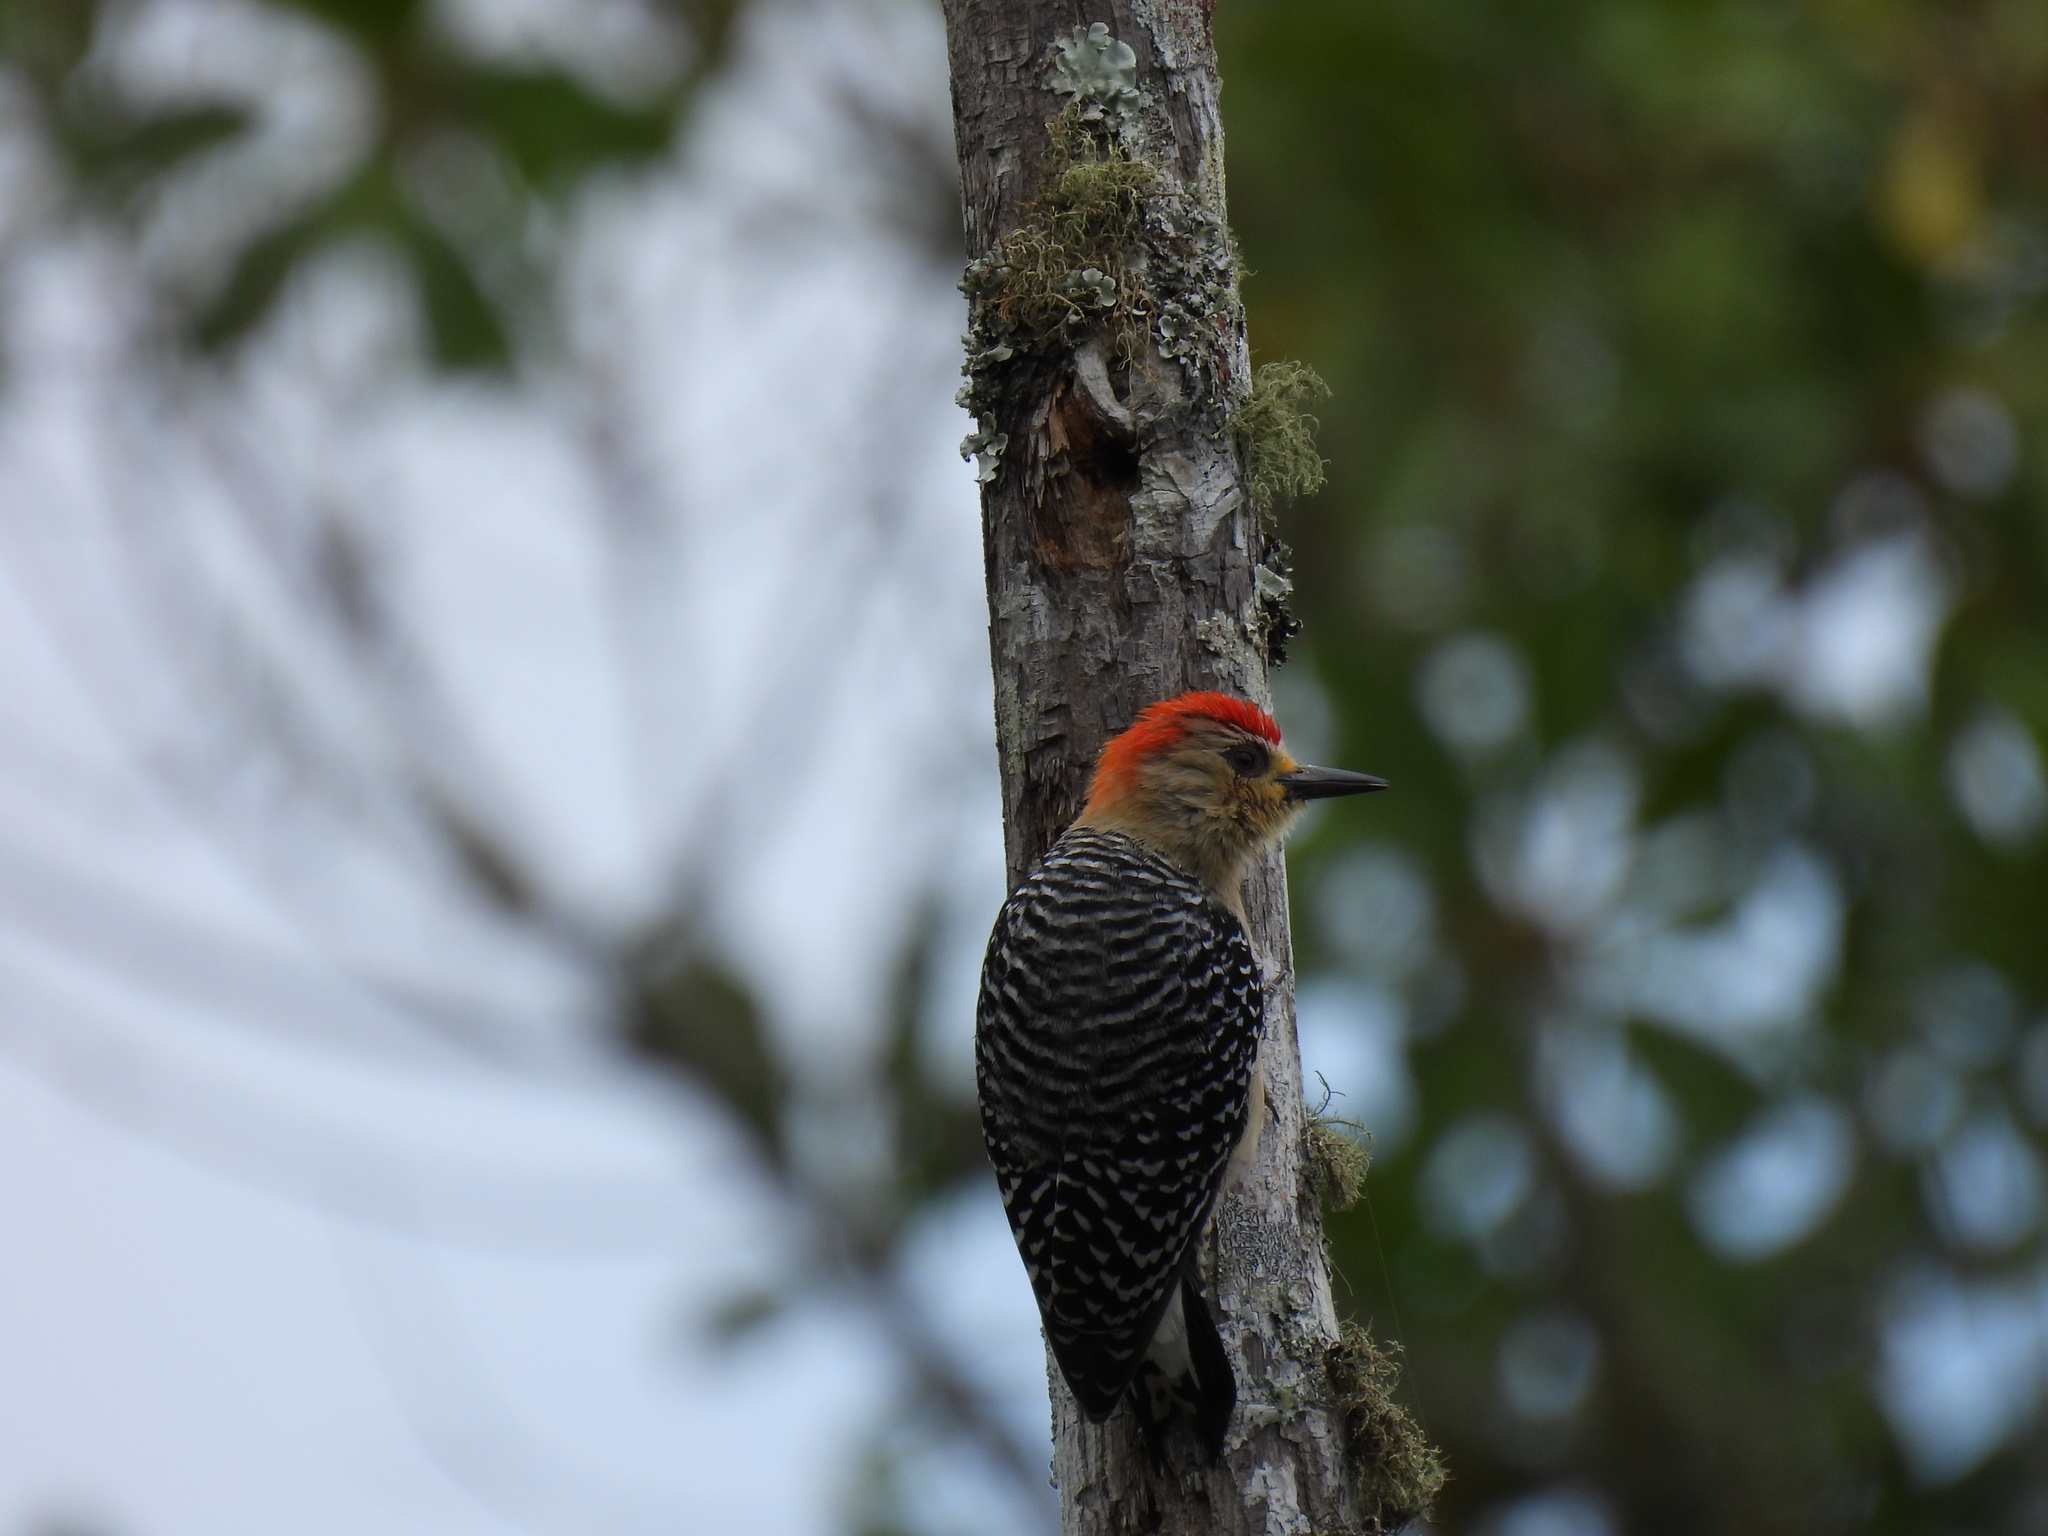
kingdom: Animalia
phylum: Chordata
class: Aves
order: Piciformes
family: Picidae
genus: Melanerpes
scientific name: Melanerpes rubricapillus
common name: Red-crowned woodpecker
